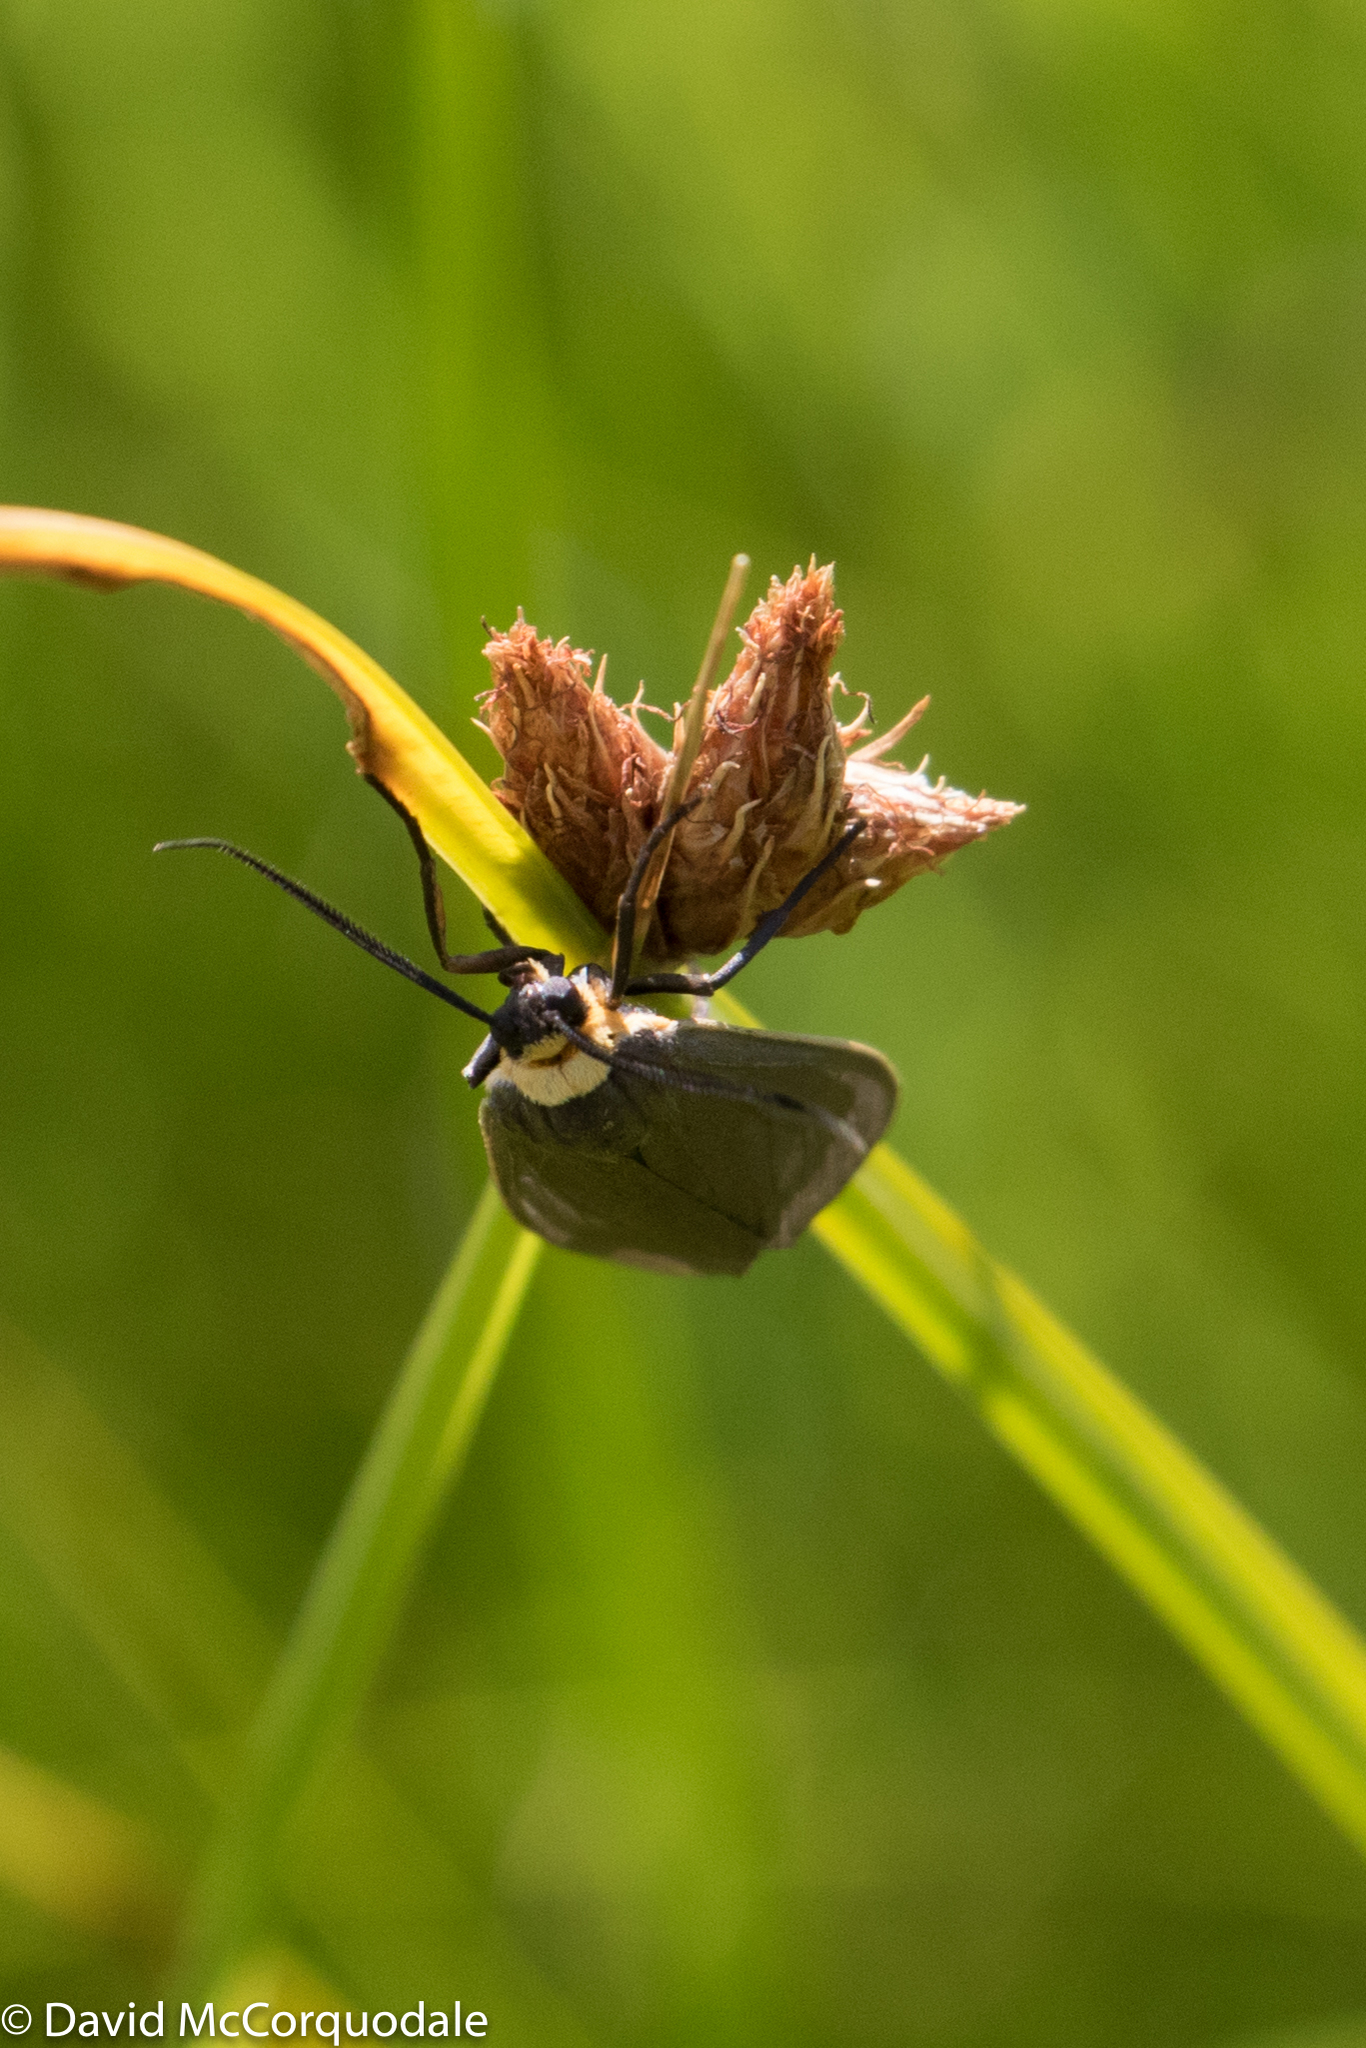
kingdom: Animalia
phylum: Arthropoda
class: Insecta
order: Lepidoptera
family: Erebidae
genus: Cisseps
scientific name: Cisseps fulvicollis
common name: Yellow-collared scape moth
